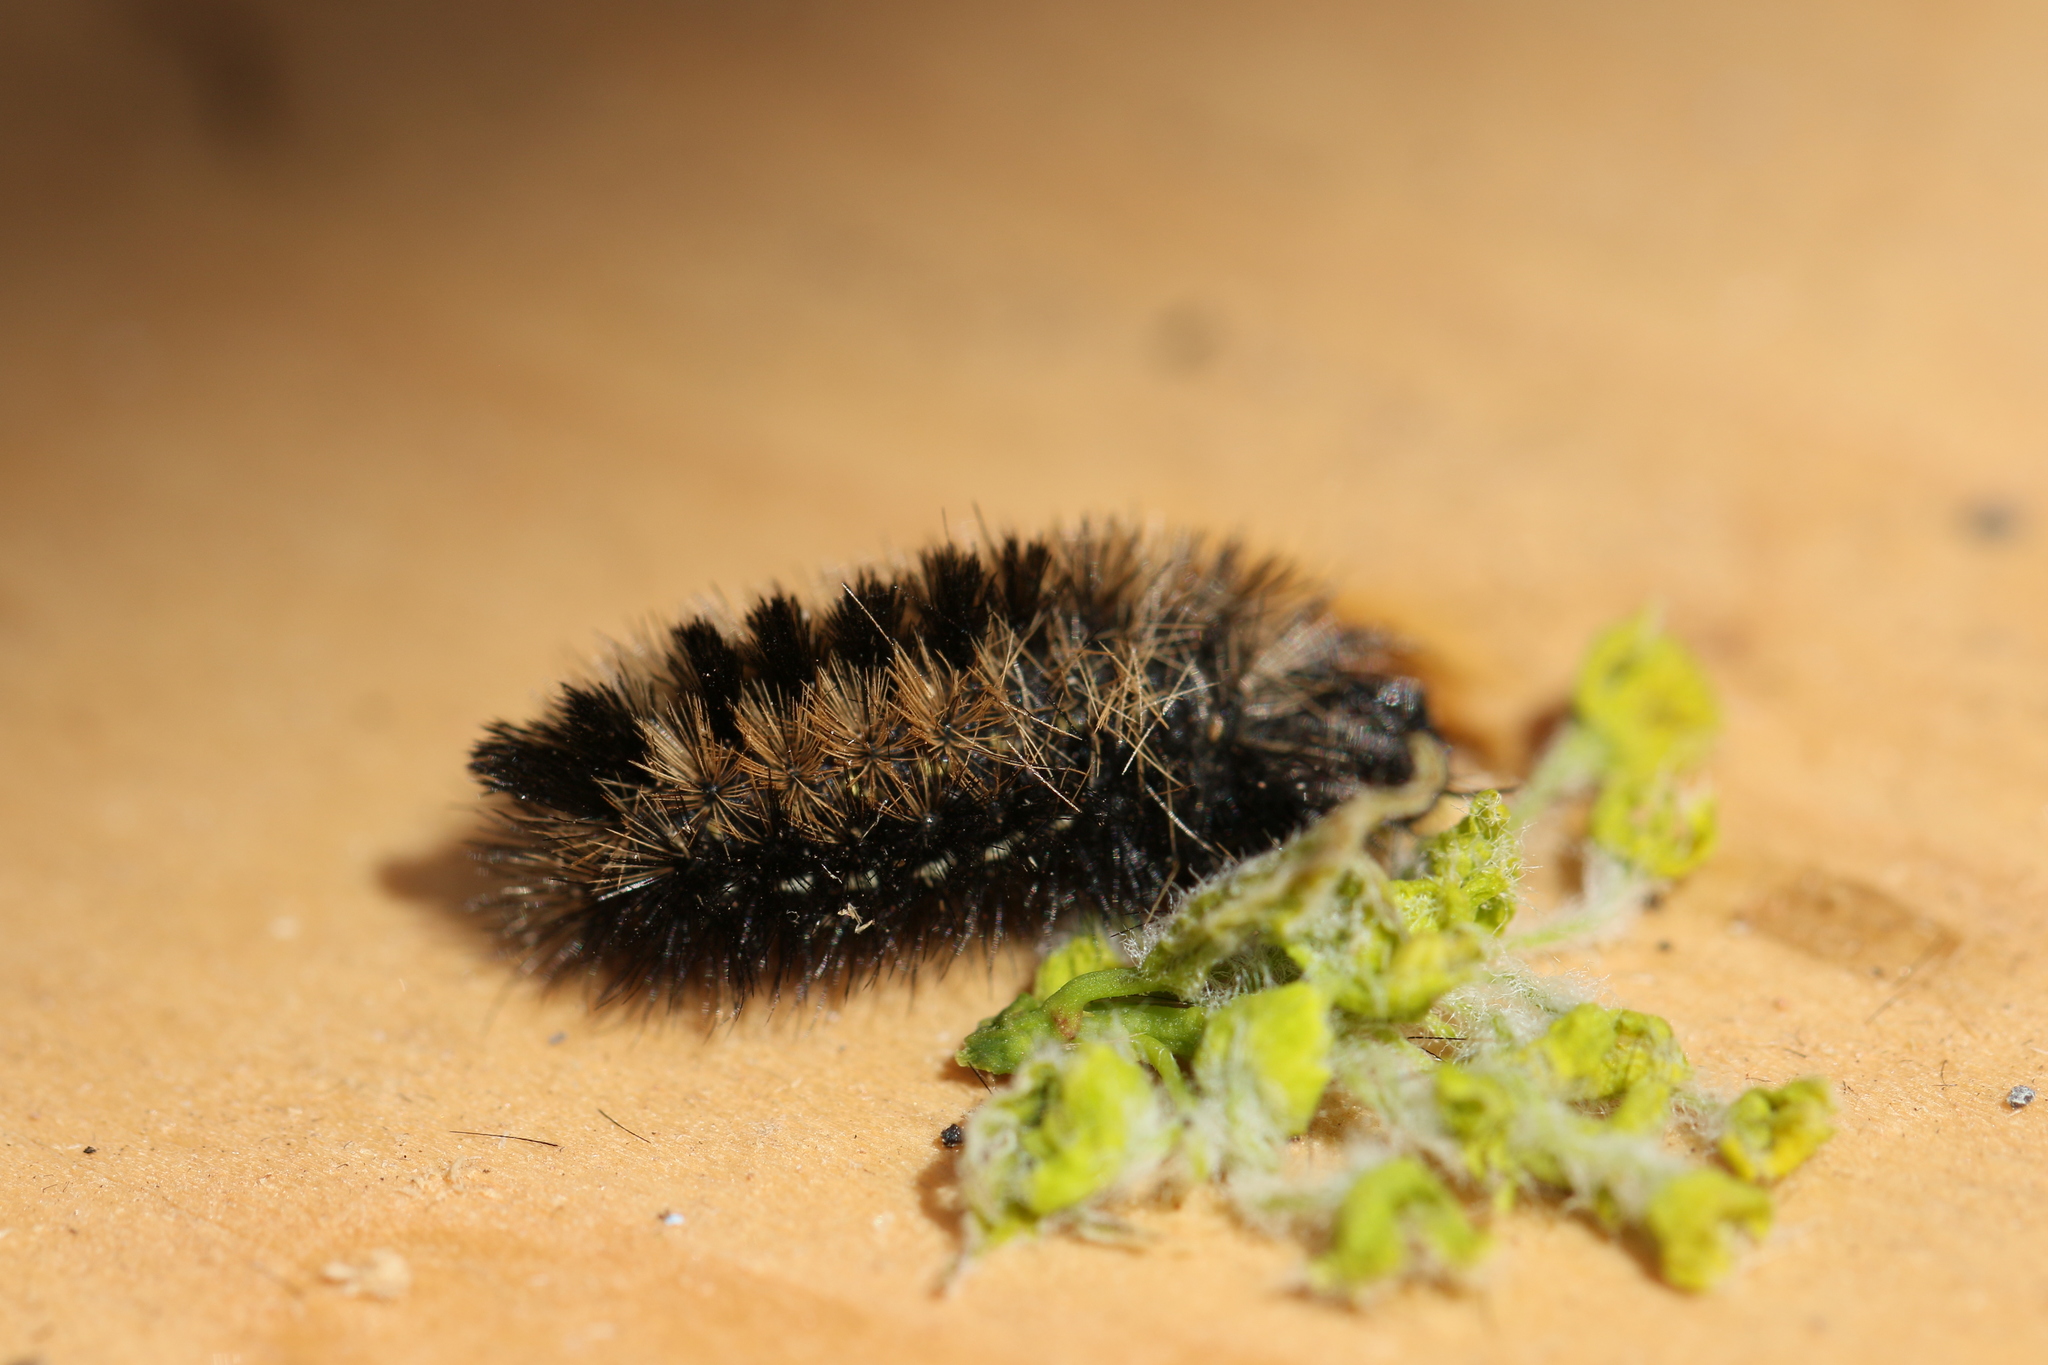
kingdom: Animalia
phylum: Arthropoda
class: Insecta
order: Lepidoptera
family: Erebidae
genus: Ctenucha
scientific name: Ctenucha virginica
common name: Virginia ctenucha moth
